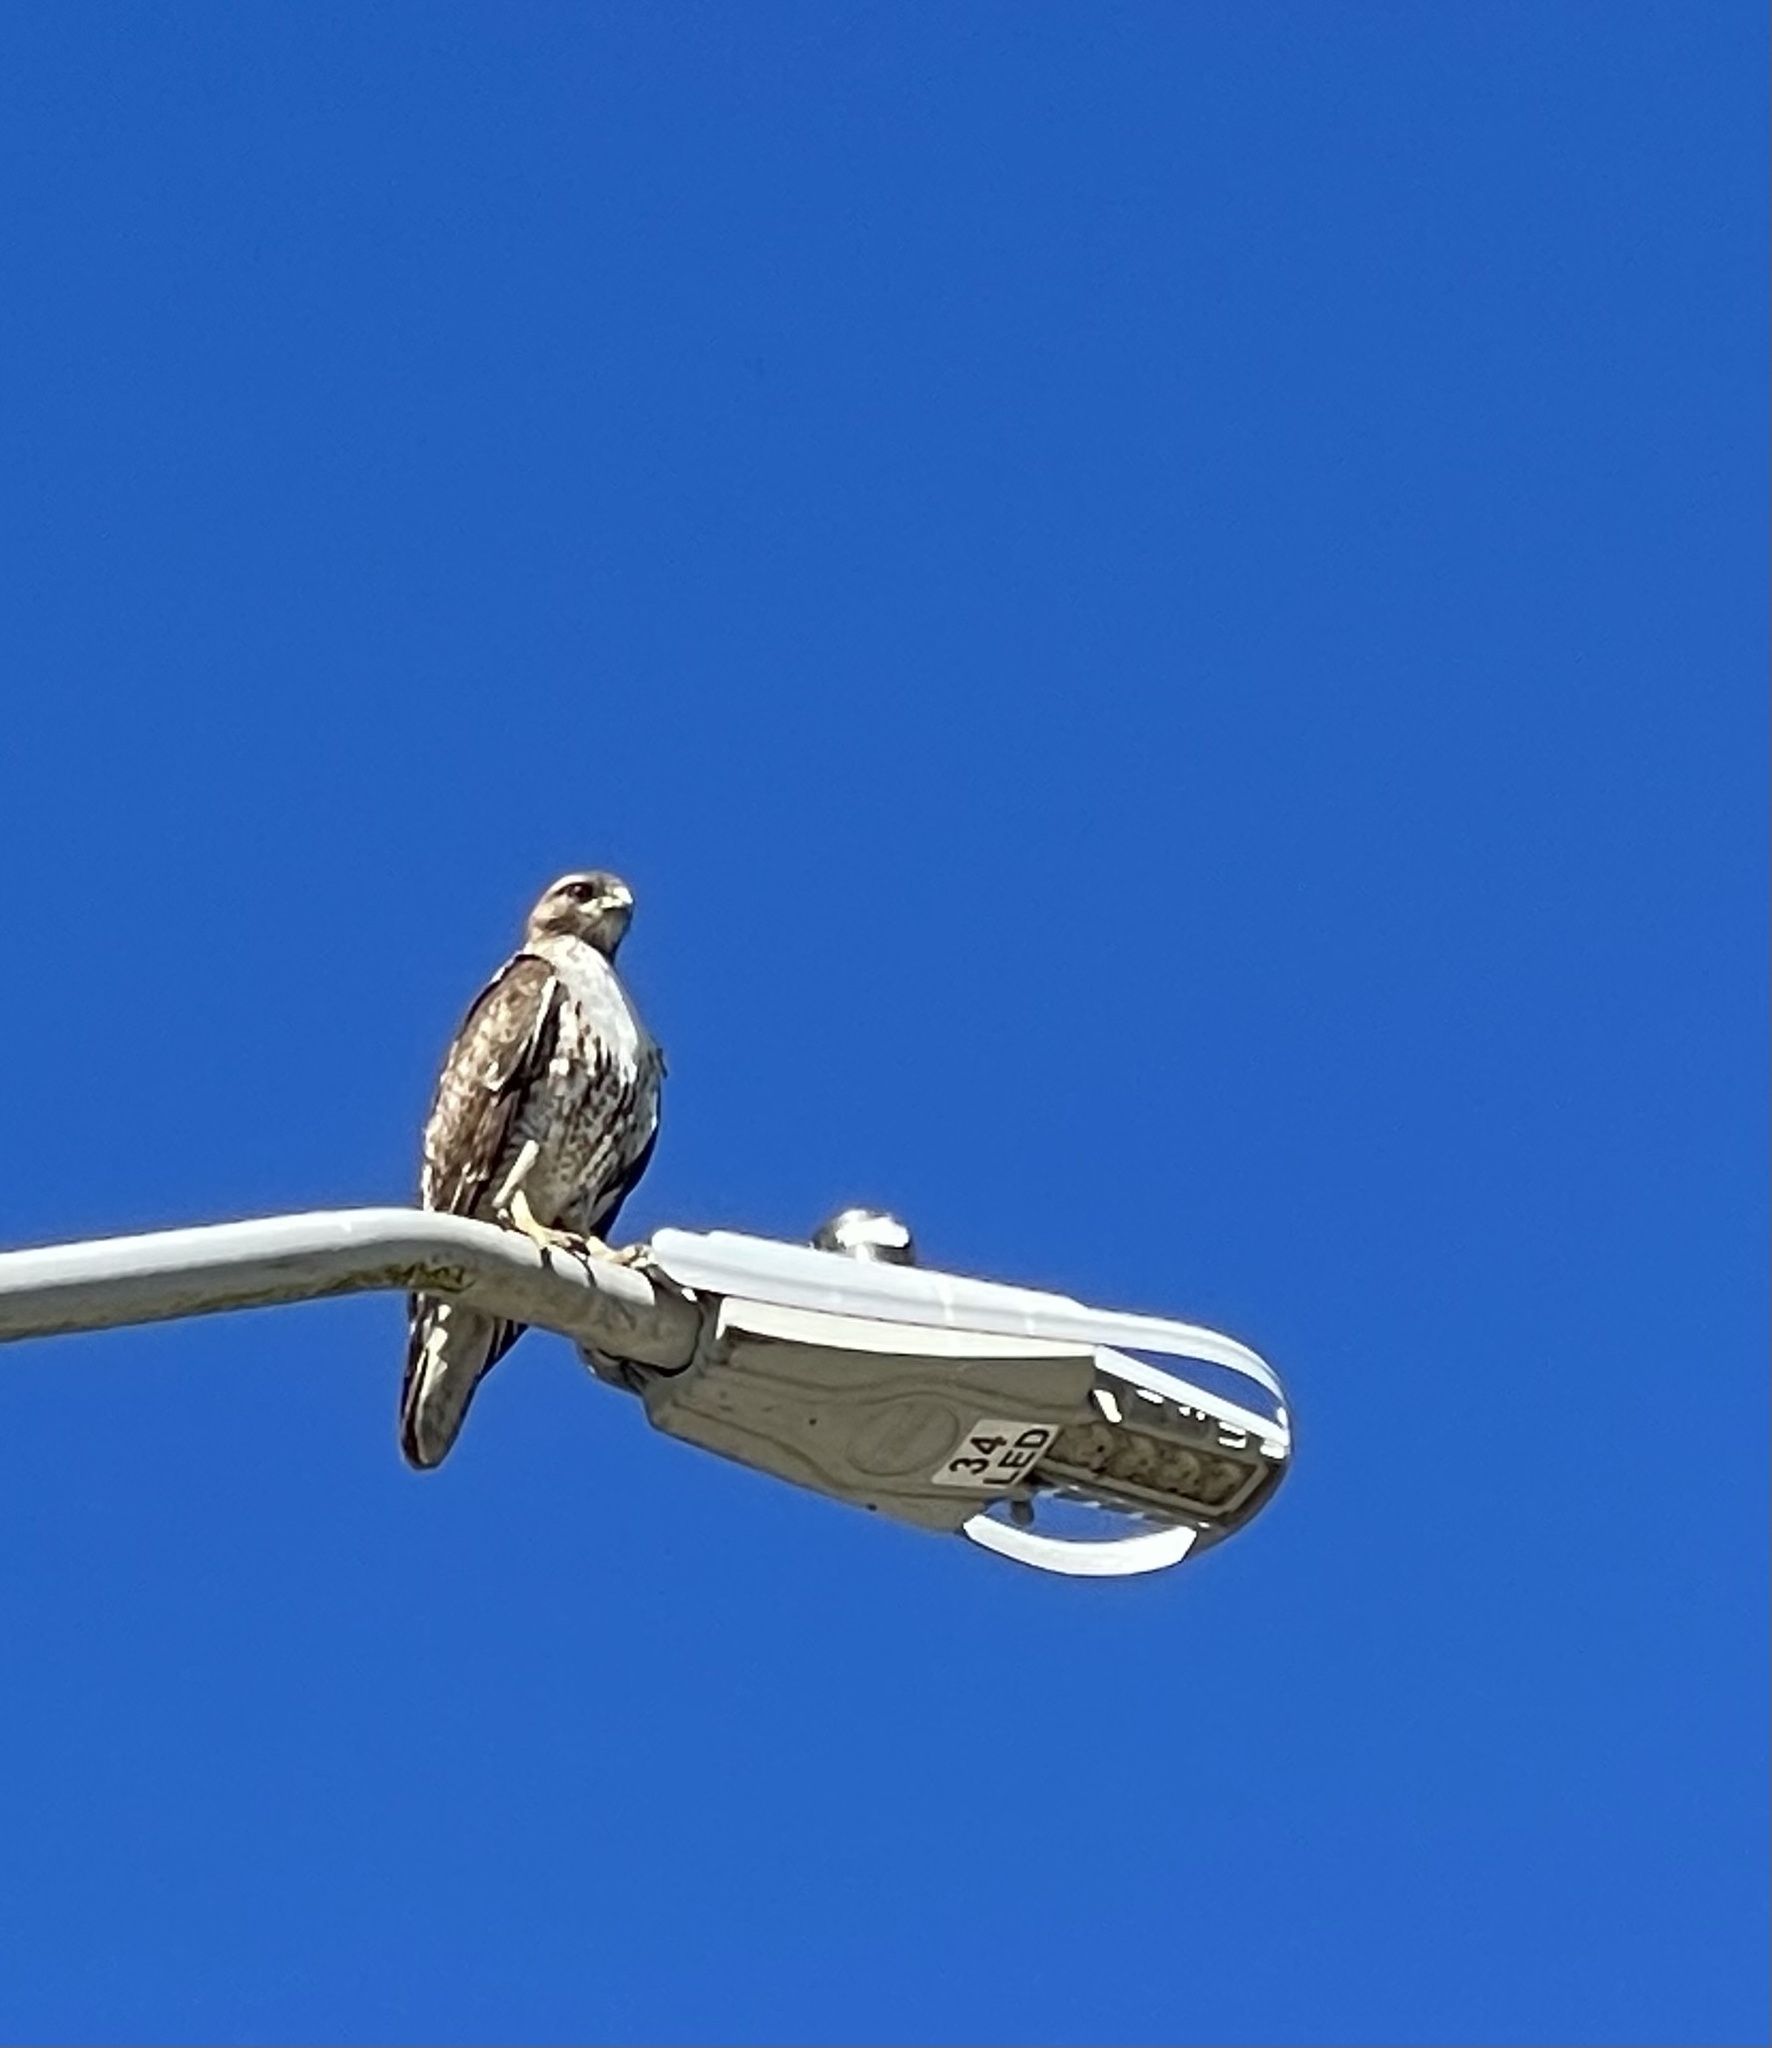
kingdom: Animalia
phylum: Chordata
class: Aves
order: Accipitriformes
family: Accipitridae
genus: Buteo
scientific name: Buteo jamaicensis
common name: Red-tailed hawk
